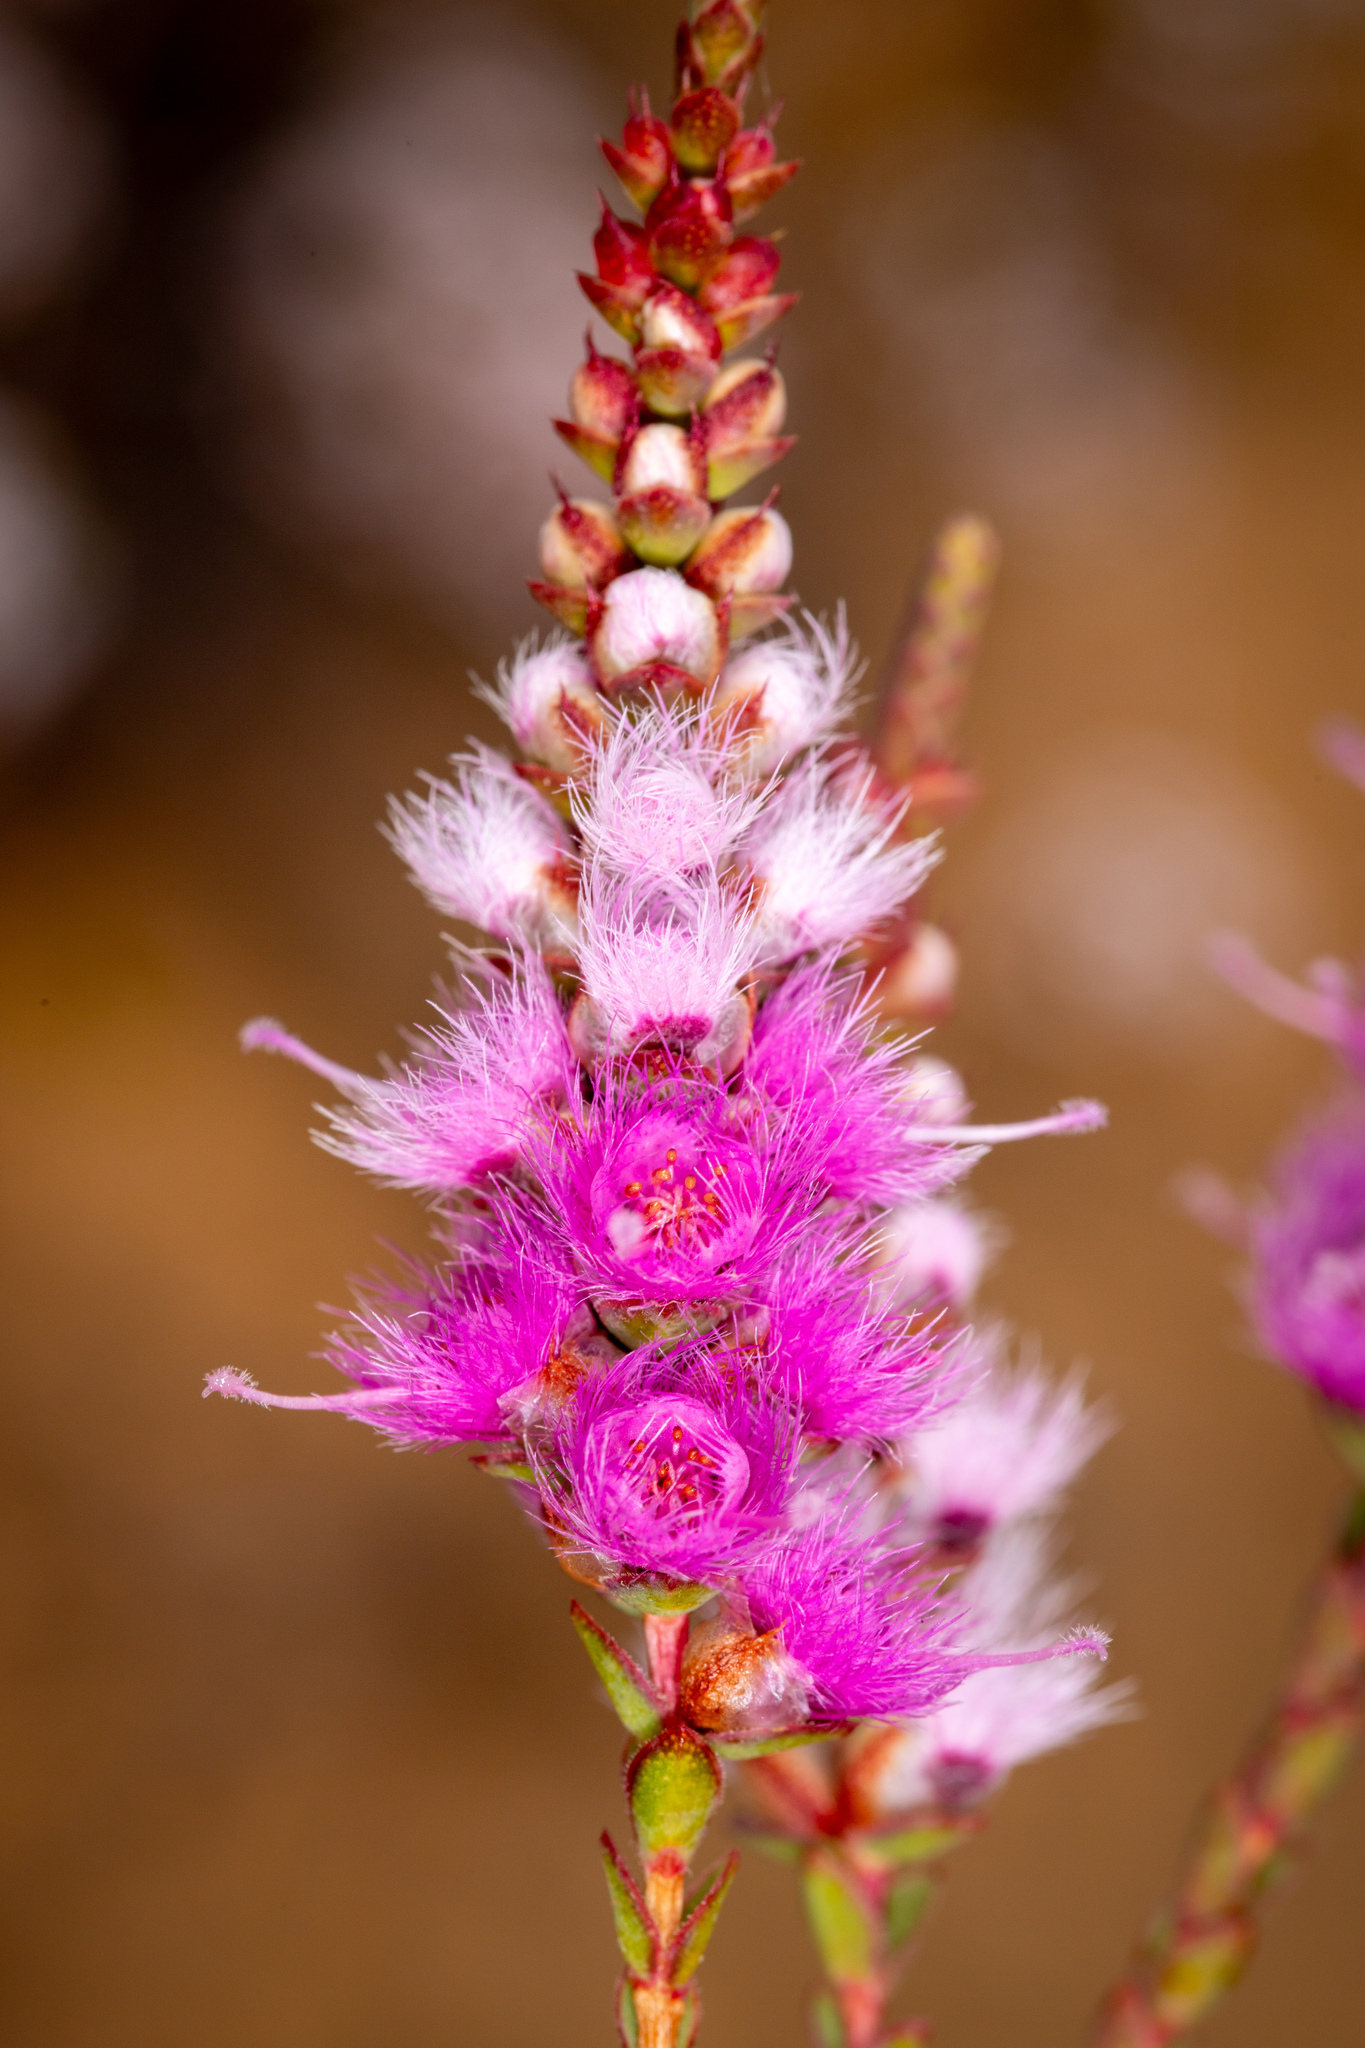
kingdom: Plantae
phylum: Tracheophyta
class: Magnoliopsida
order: Myrtales
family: Myrtaceae
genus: Verticordia
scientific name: Verticordia spicata
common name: Spike feather-flower
